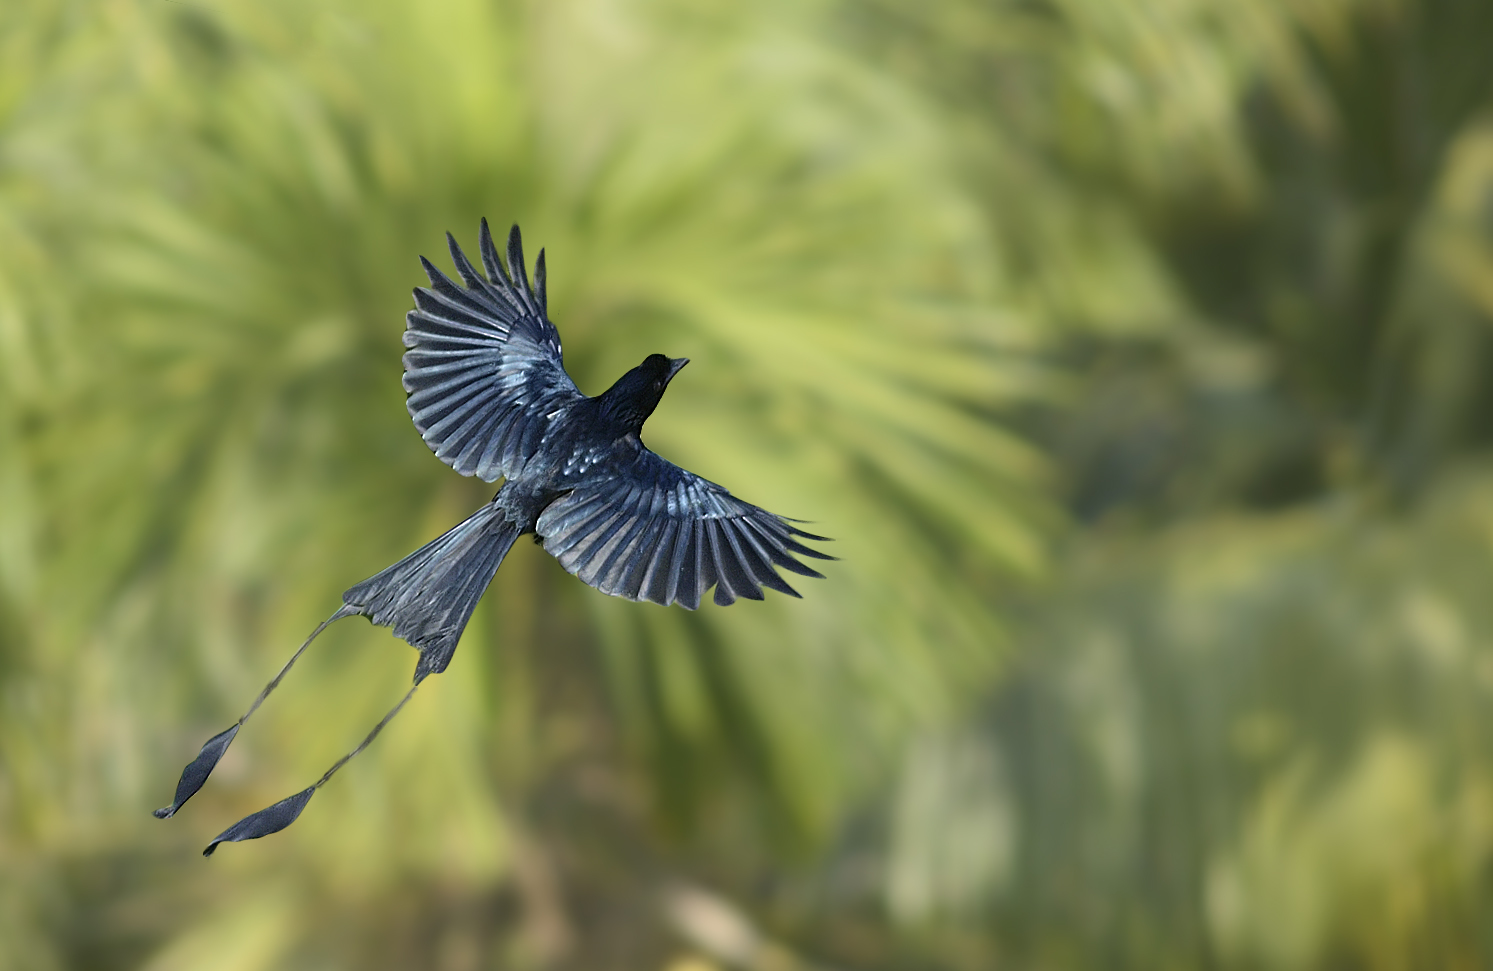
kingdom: Animalia
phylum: Chordata
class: Aves
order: Passeriformes
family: Dicruridae
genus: Dicrurus
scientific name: Dicrurus paradiseus
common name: Greater racket-tailed drongo
